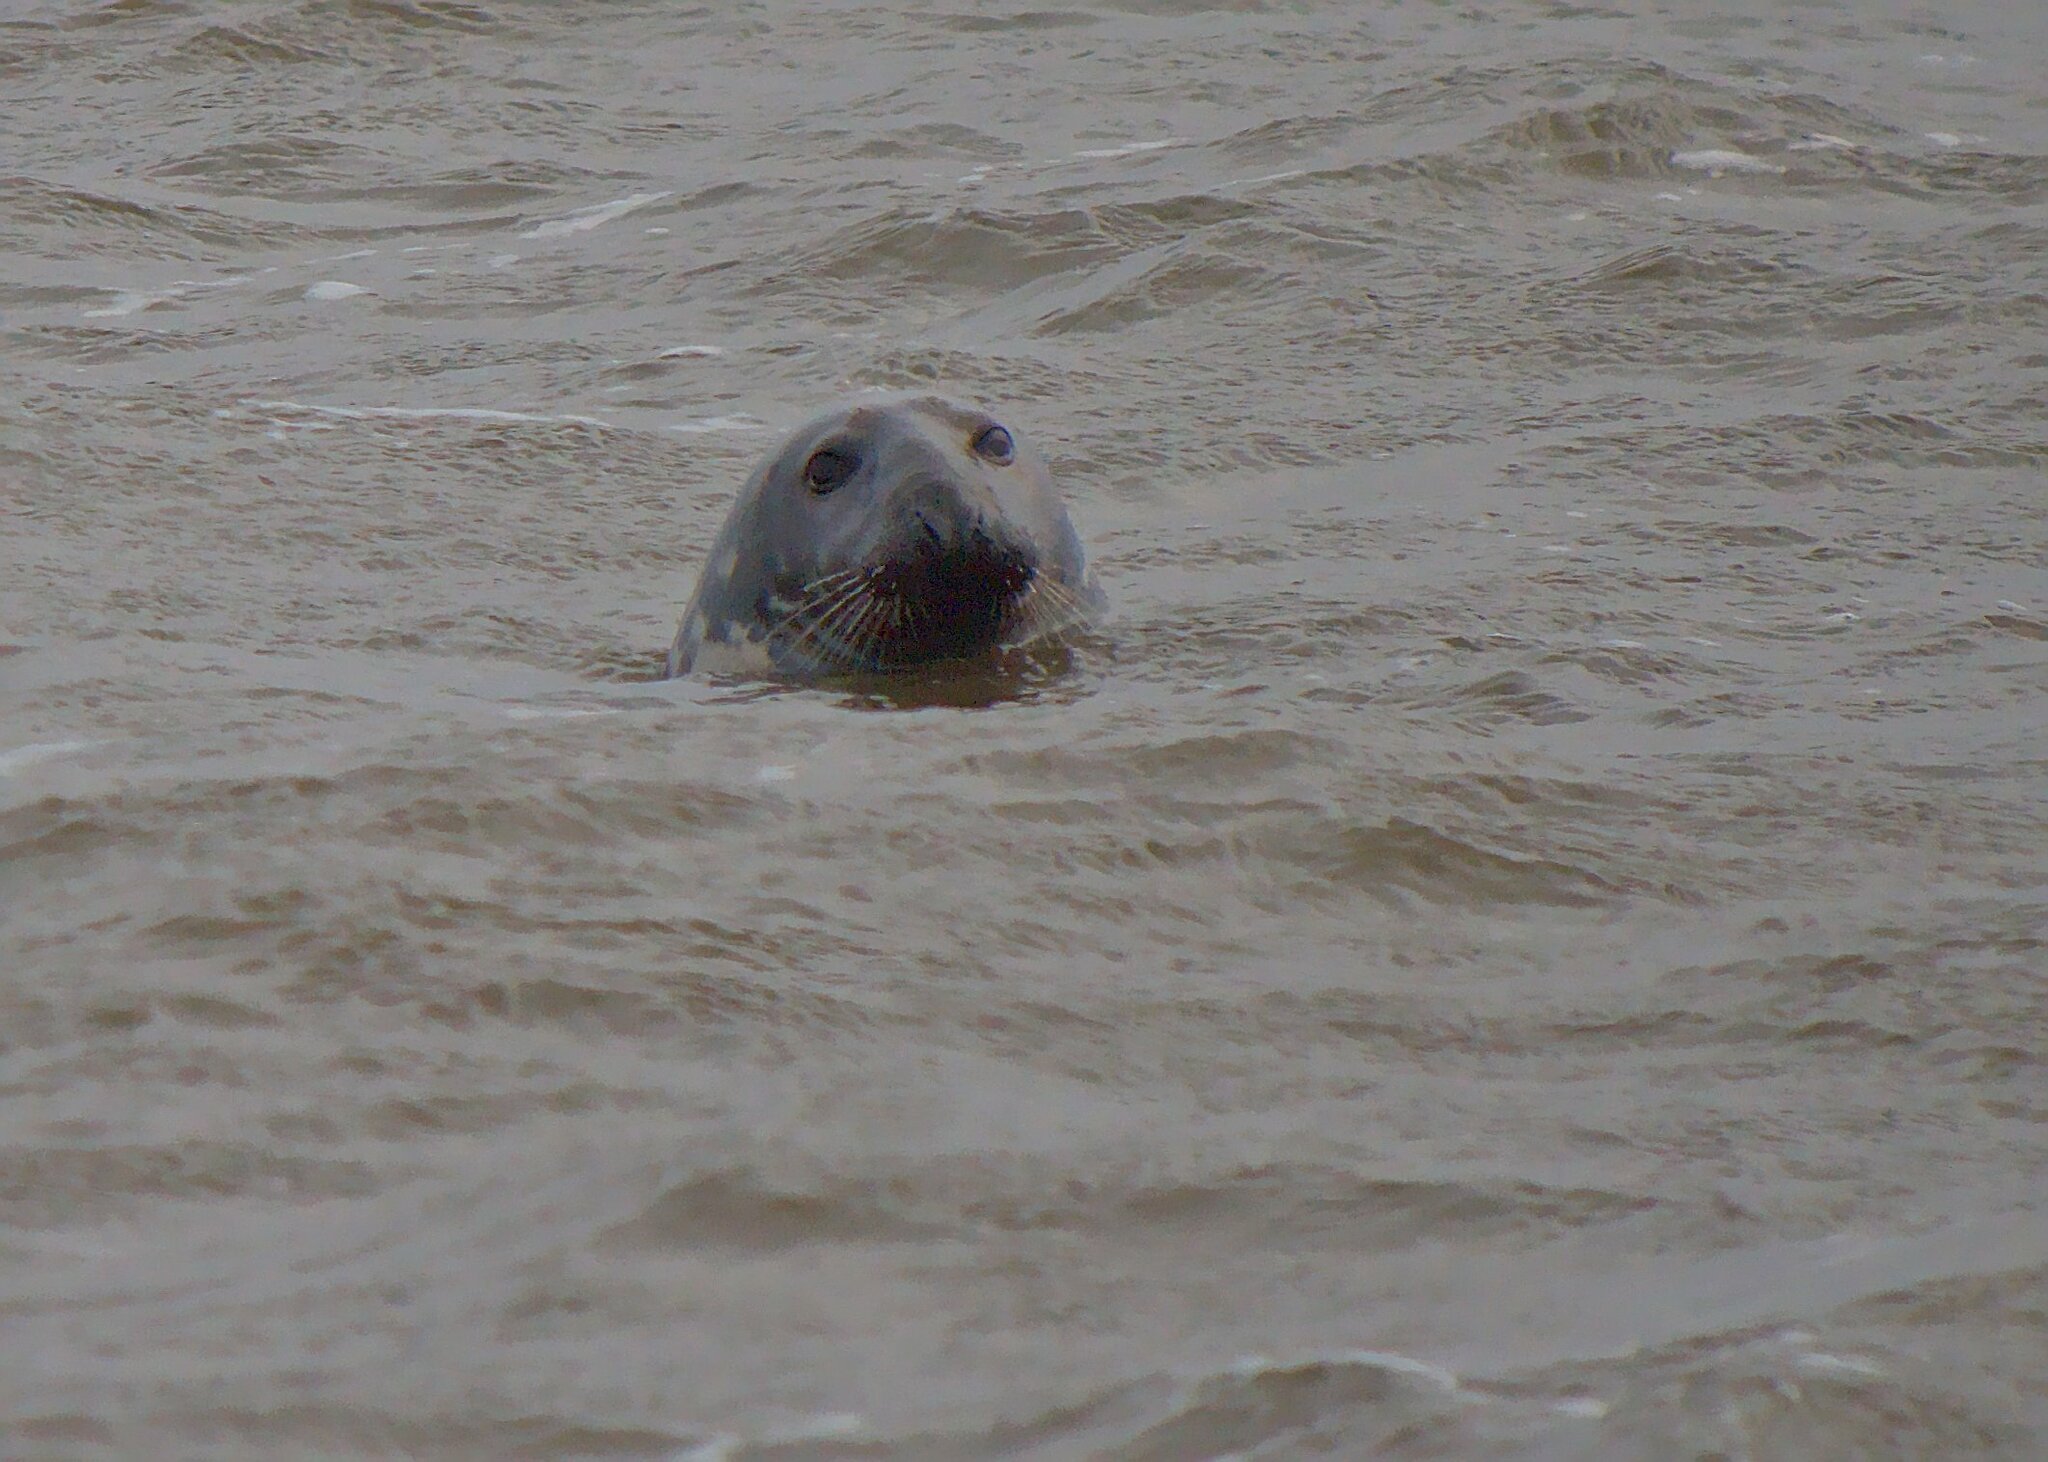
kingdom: Animalia
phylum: Chordata
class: Mammalia
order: Carnivora
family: Phocidae
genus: Halichoerus
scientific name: Halichoerus grypus
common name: Grey seal
